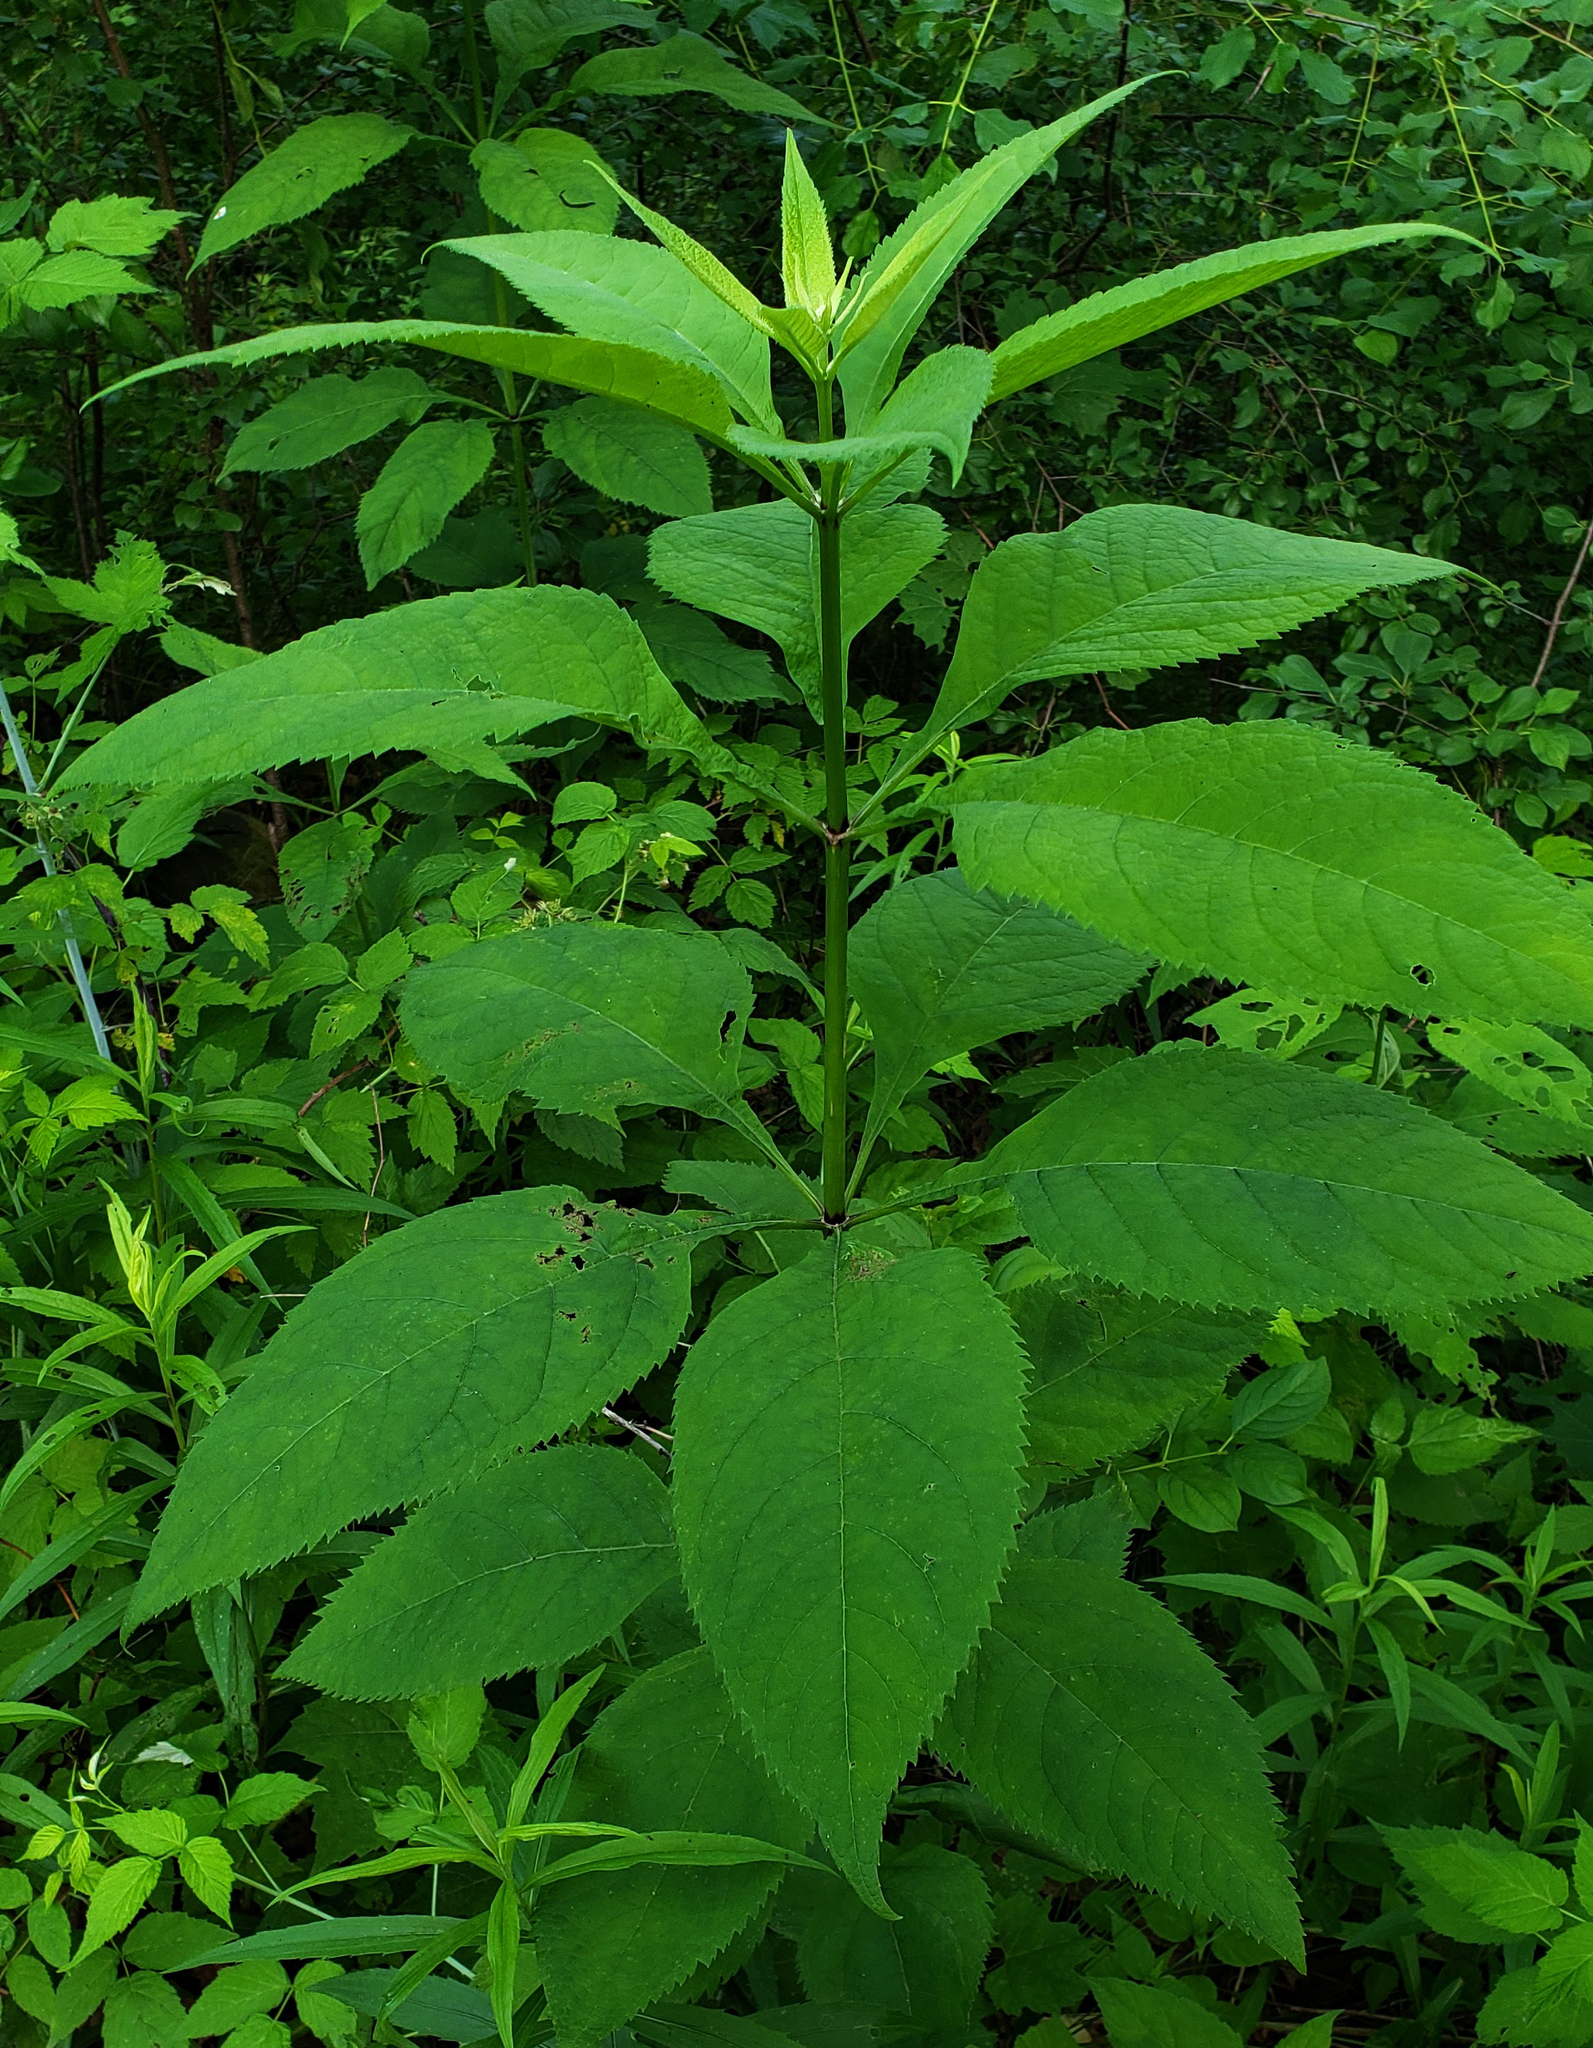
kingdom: Plantae
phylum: Tracheophyta
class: Magnoliopsida
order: Asterales
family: Asteraceae
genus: Eutrochium
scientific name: Eutrochium purpureum
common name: Gravelroot
